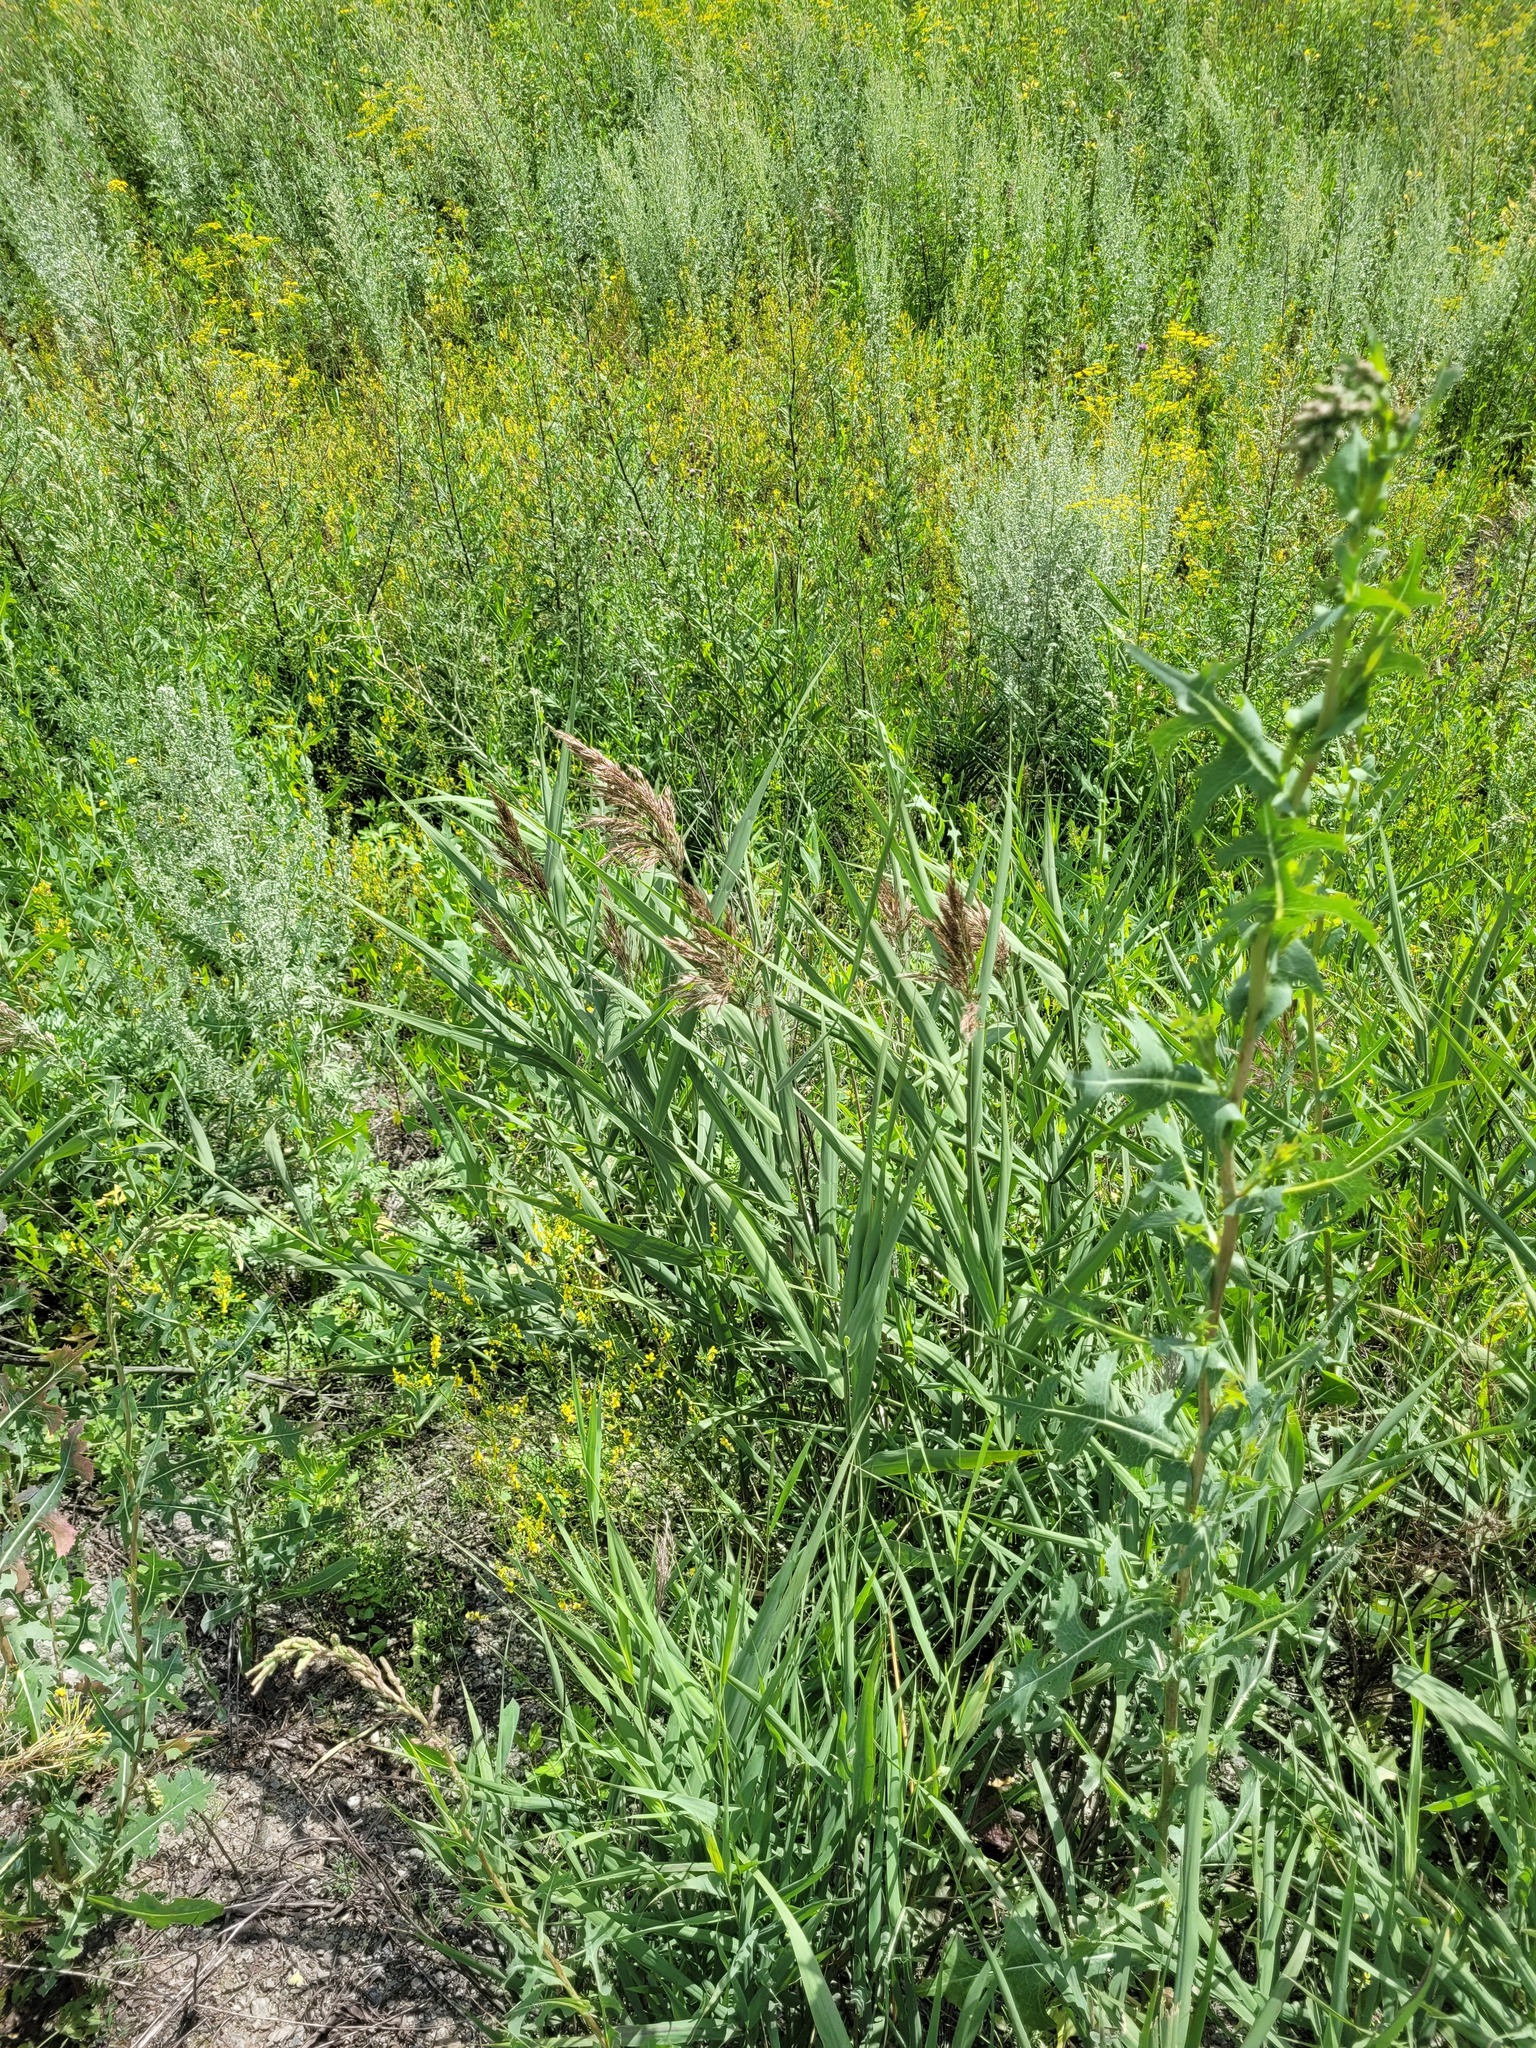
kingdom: Plantae
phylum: Tracheophyta
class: Liliopsida
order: Poales
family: Poaceae
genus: Phragmites
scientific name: Phragmites australis
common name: Common reed
